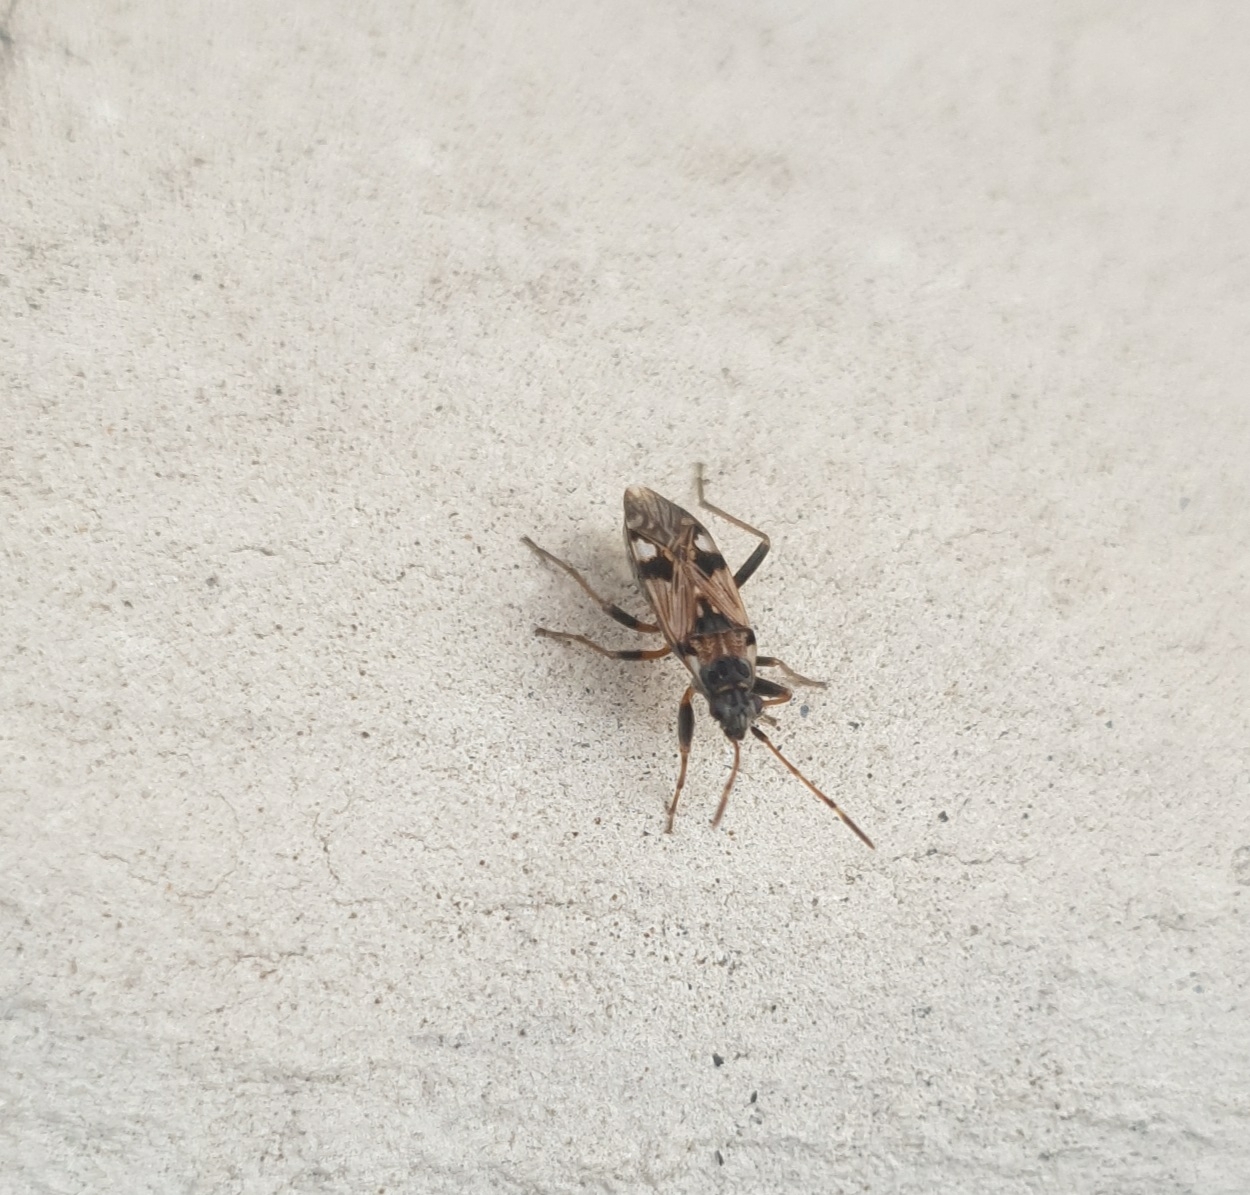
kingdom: Animalia
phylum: Arthropoda
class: Insecta
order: Hemiptera
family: Rhyparochromidae
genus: Beosus
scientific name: Beosus maritimus
